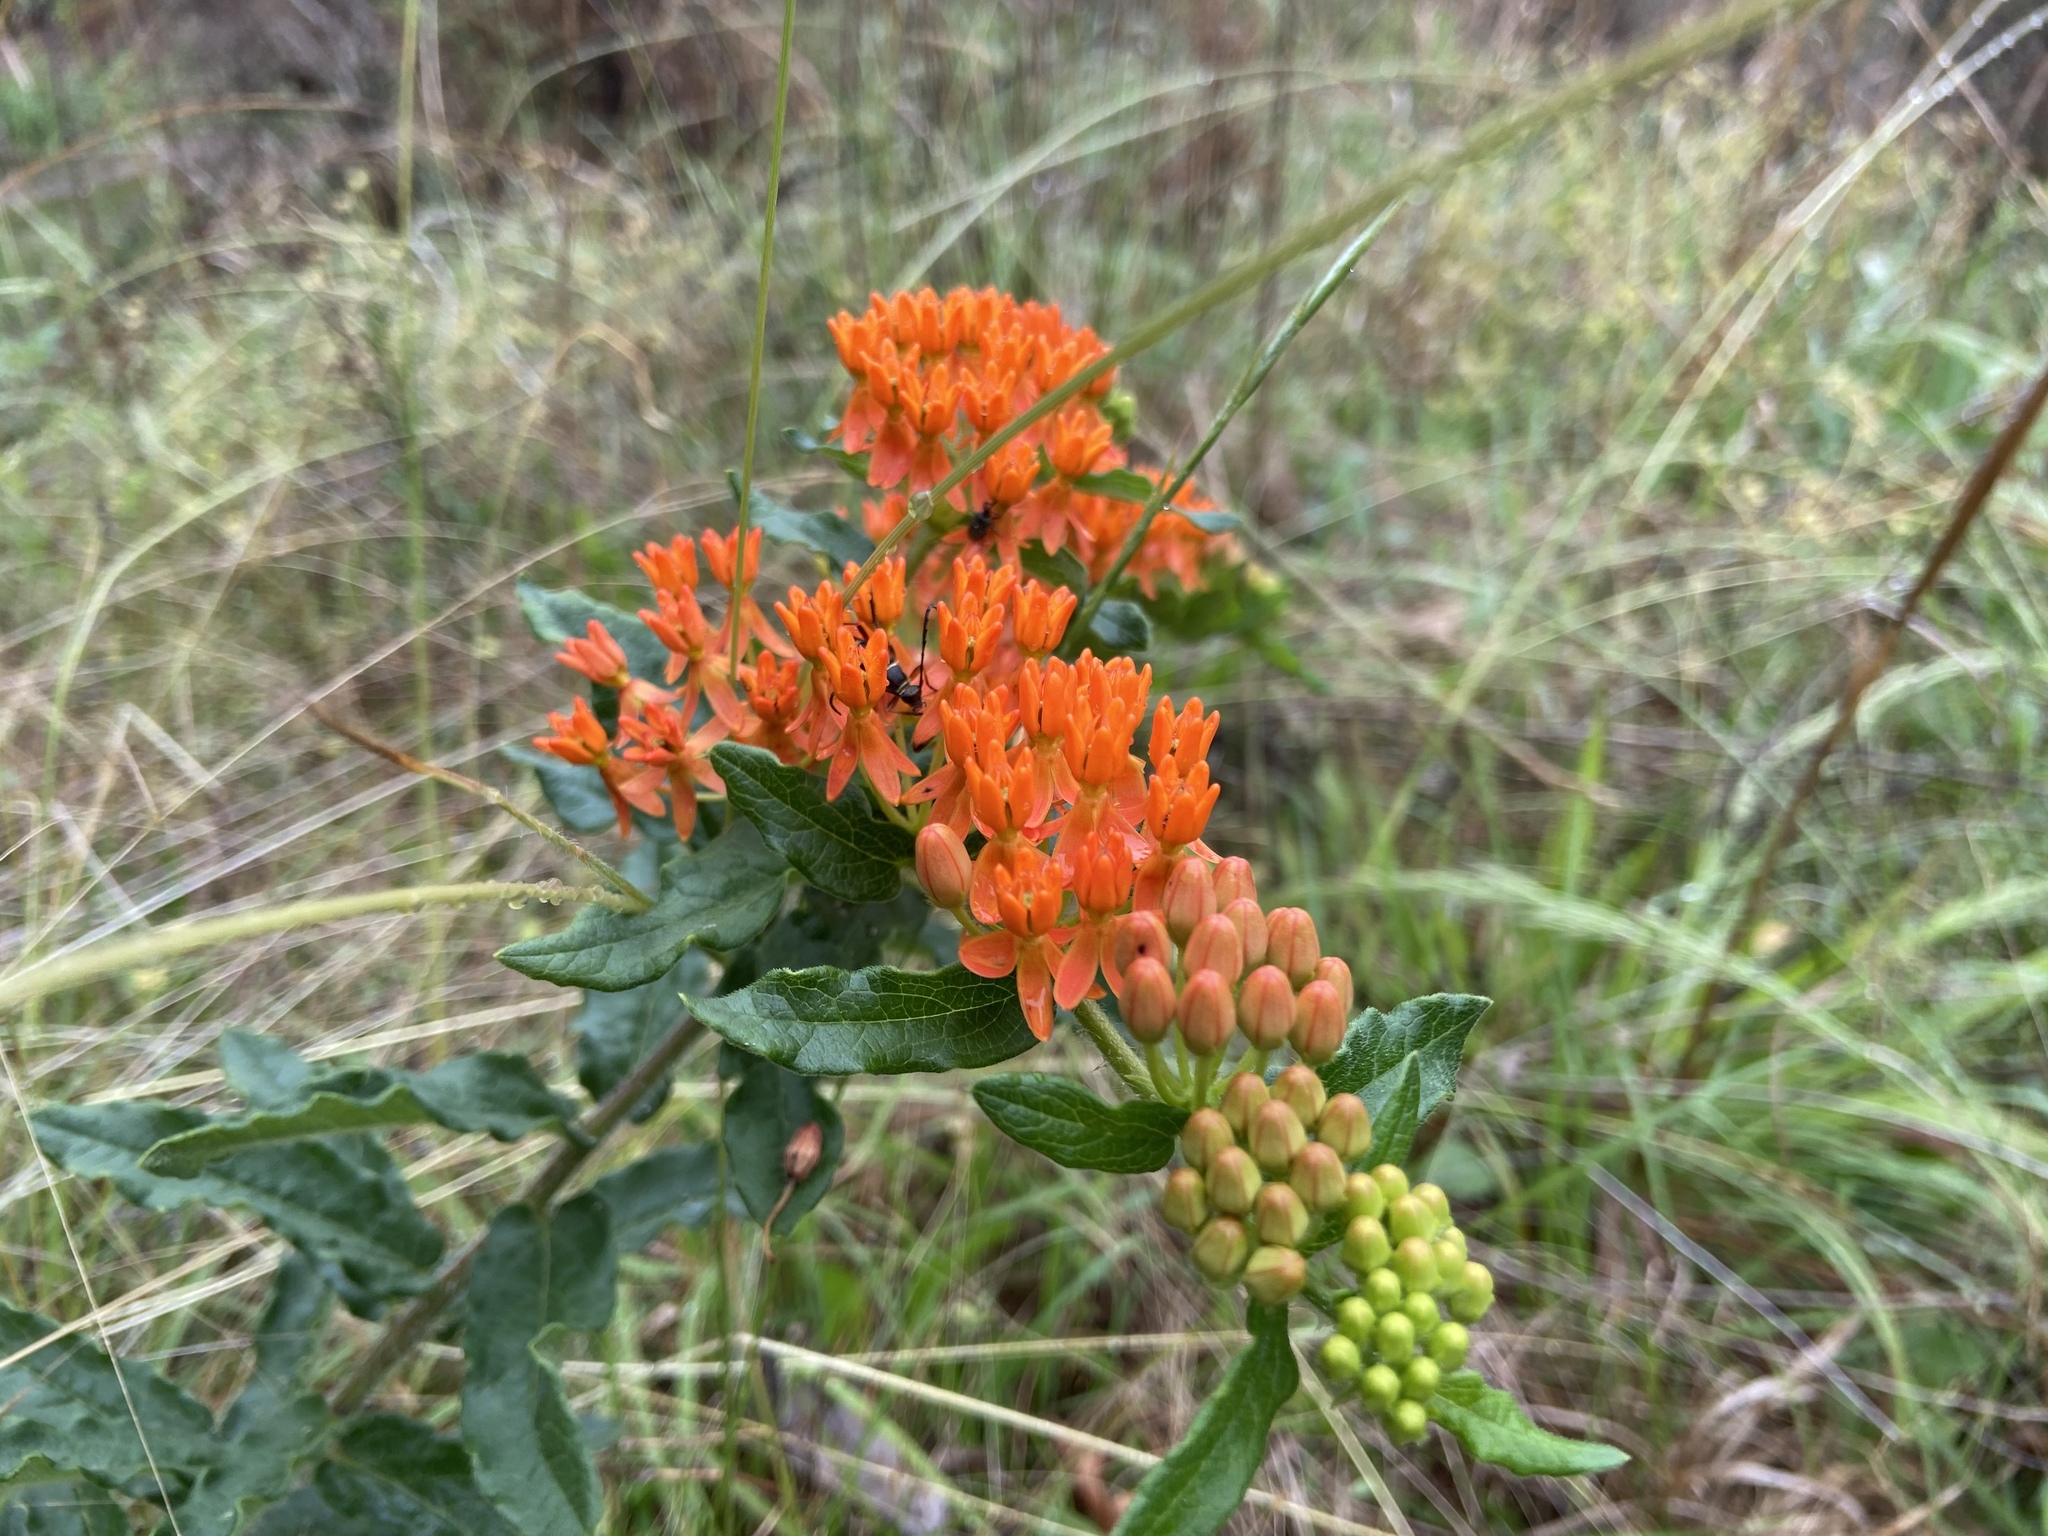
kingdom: Plantae
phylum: Tracheophyta
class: Magnoliopsida
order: Gentianales
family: Apocynaceae
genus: Asclepias
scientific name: Asclepias tuberosa
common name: Butterfly milkweed
